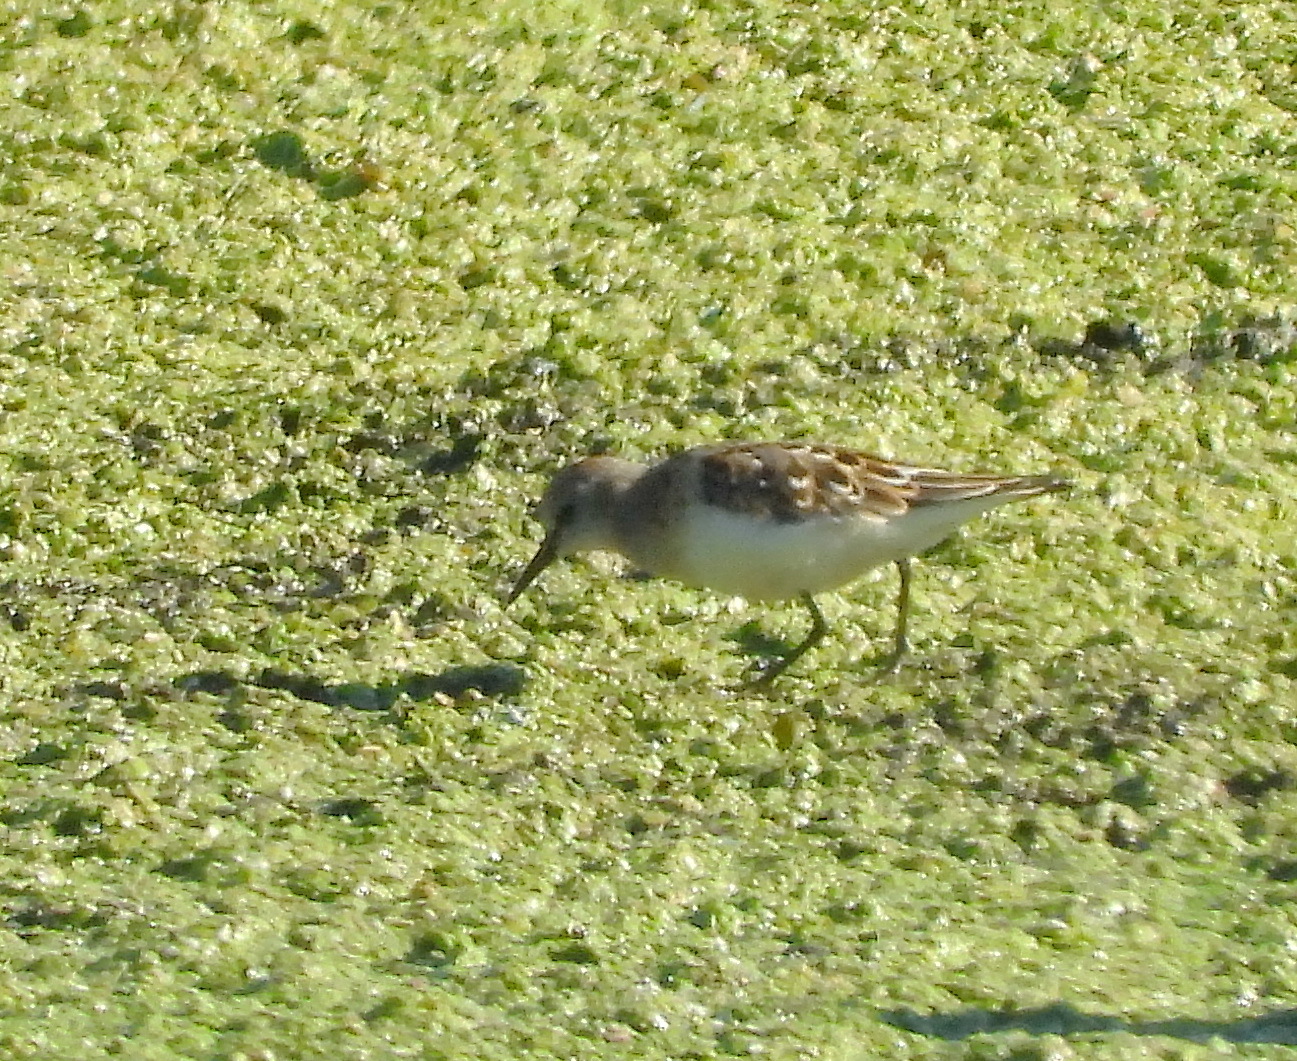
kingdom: Animalia
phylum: Chordata
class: Aves
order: Charadriiformes
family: Scolopacidae
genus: Calidris
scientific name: Calidris minuta
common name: Little stint
